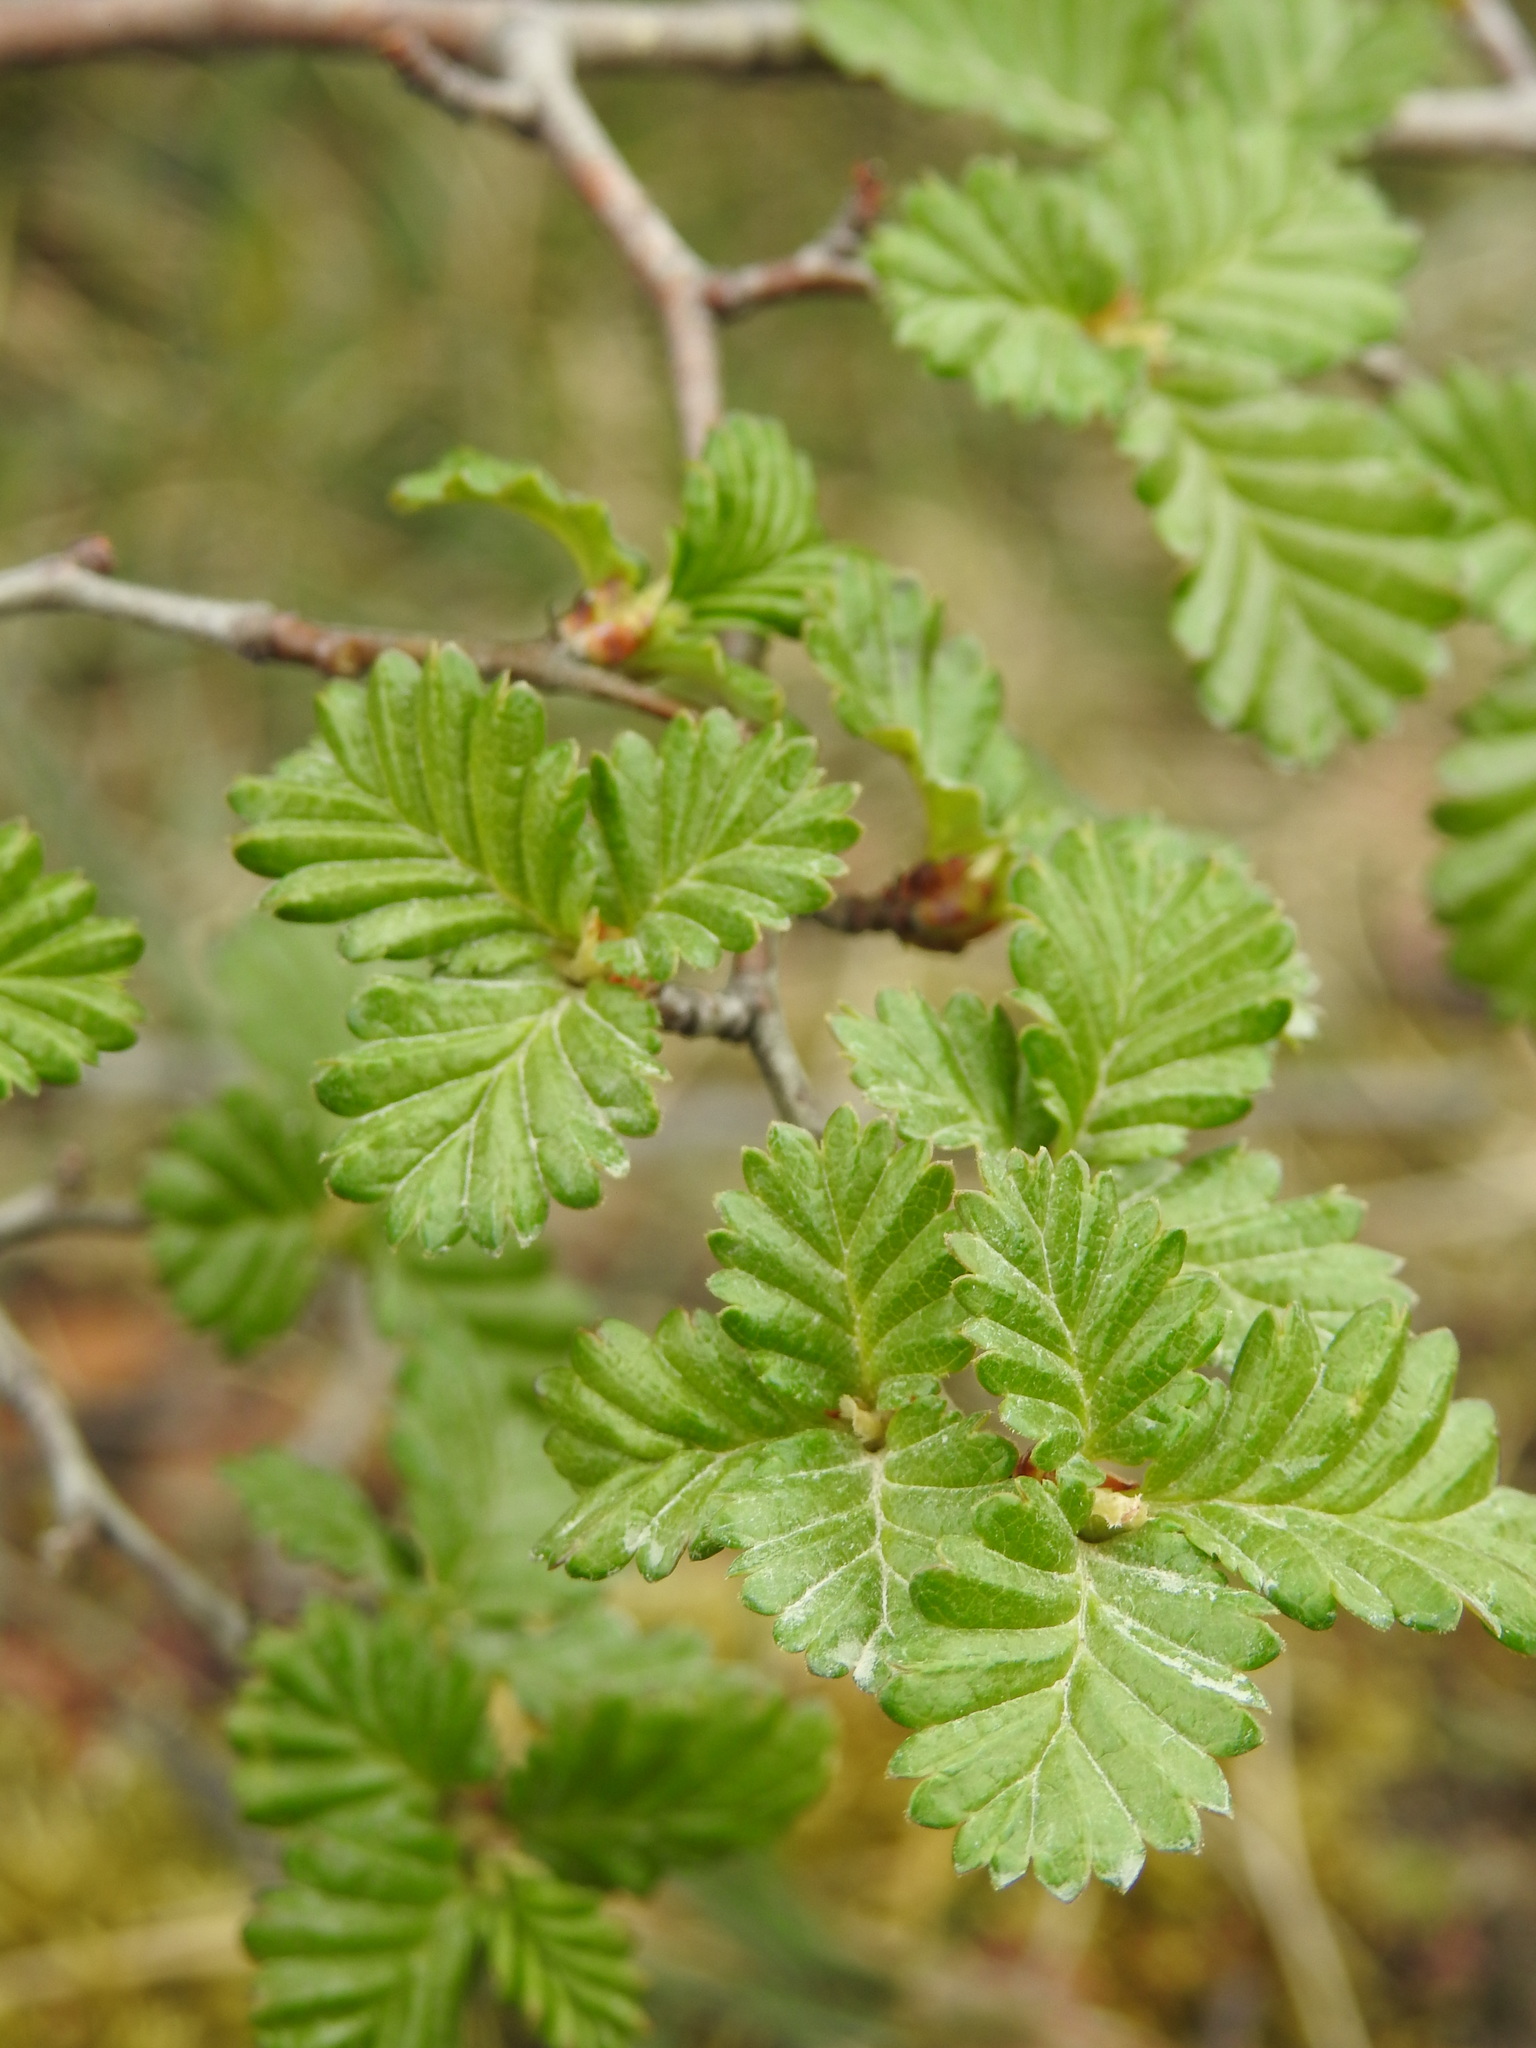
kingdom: Plantae
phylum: Tracheophyta
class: Magnoliopsida
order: Fagales
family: Nothofagaceae
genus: Nothofagus
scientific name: Nothofagus pumilio
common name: Lenga beech
